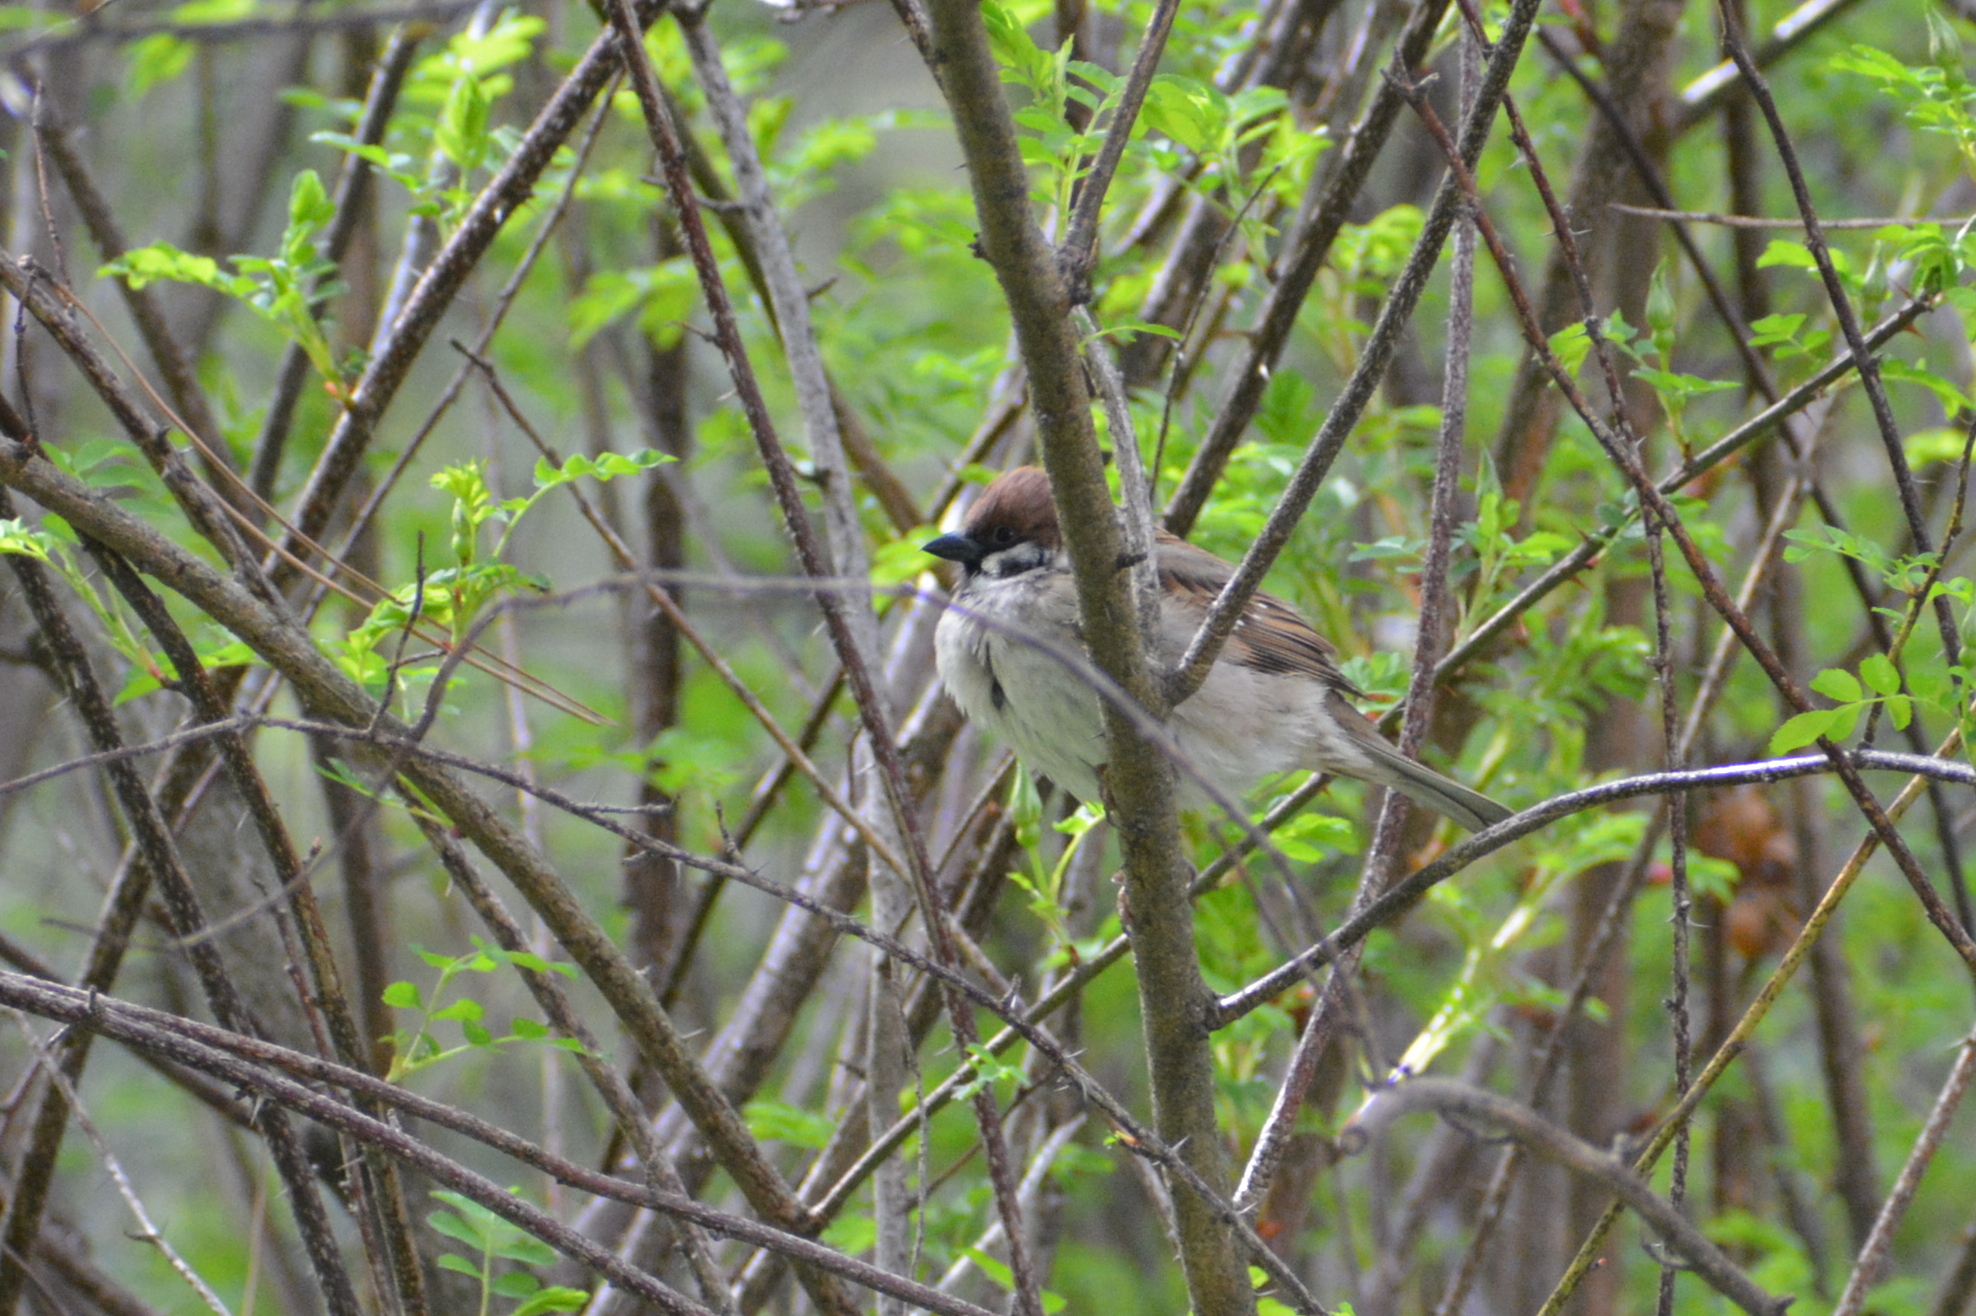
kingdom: Animalia
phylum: Chordata
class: Aves
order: Passeriformes
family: Passeridae
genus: Passer
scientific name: Passer montanus
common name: Eurasian tree sparrow
